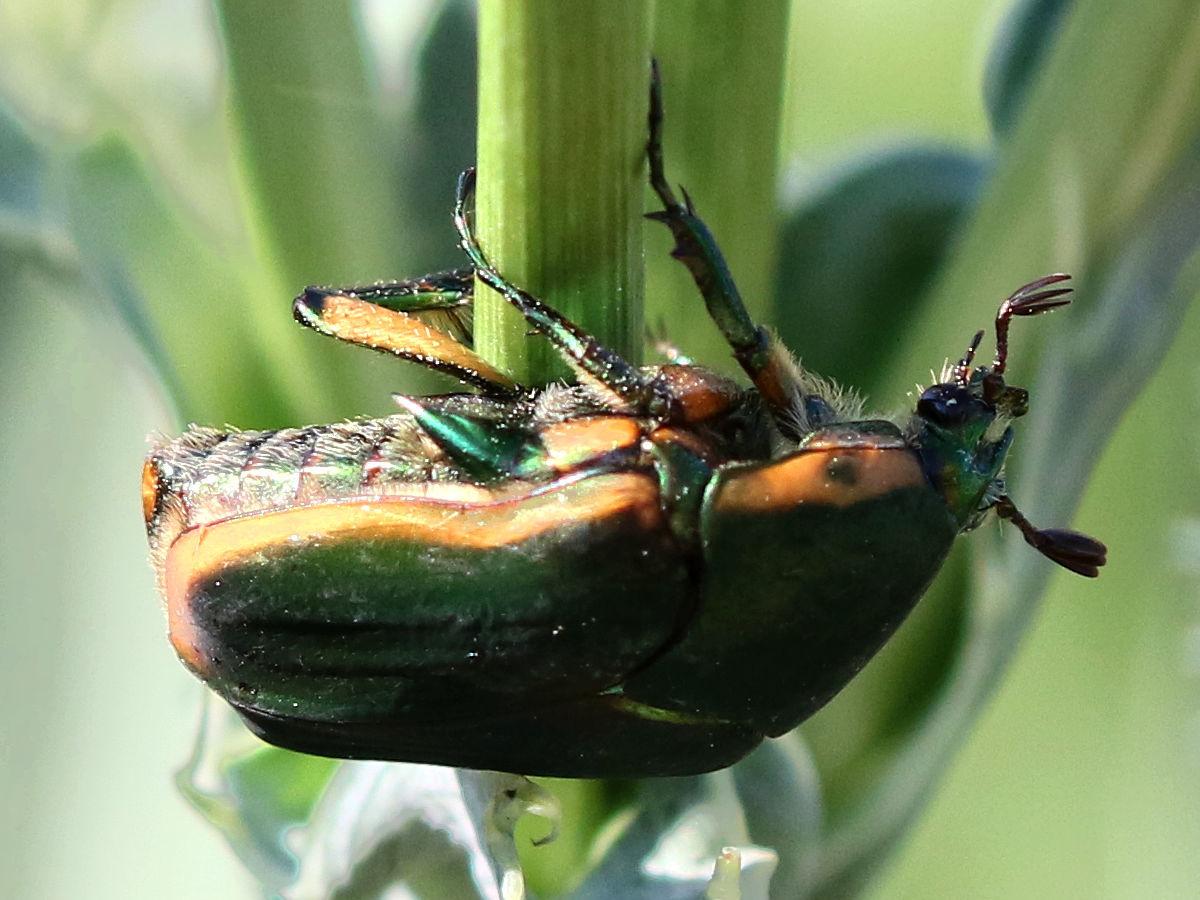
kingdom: Animalia
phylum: Arthropoda
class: Insecta
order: Coleoptera
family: Scarabaeidae
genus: Cotinis
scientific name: Cotinis nitida
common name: Common green june beetle
